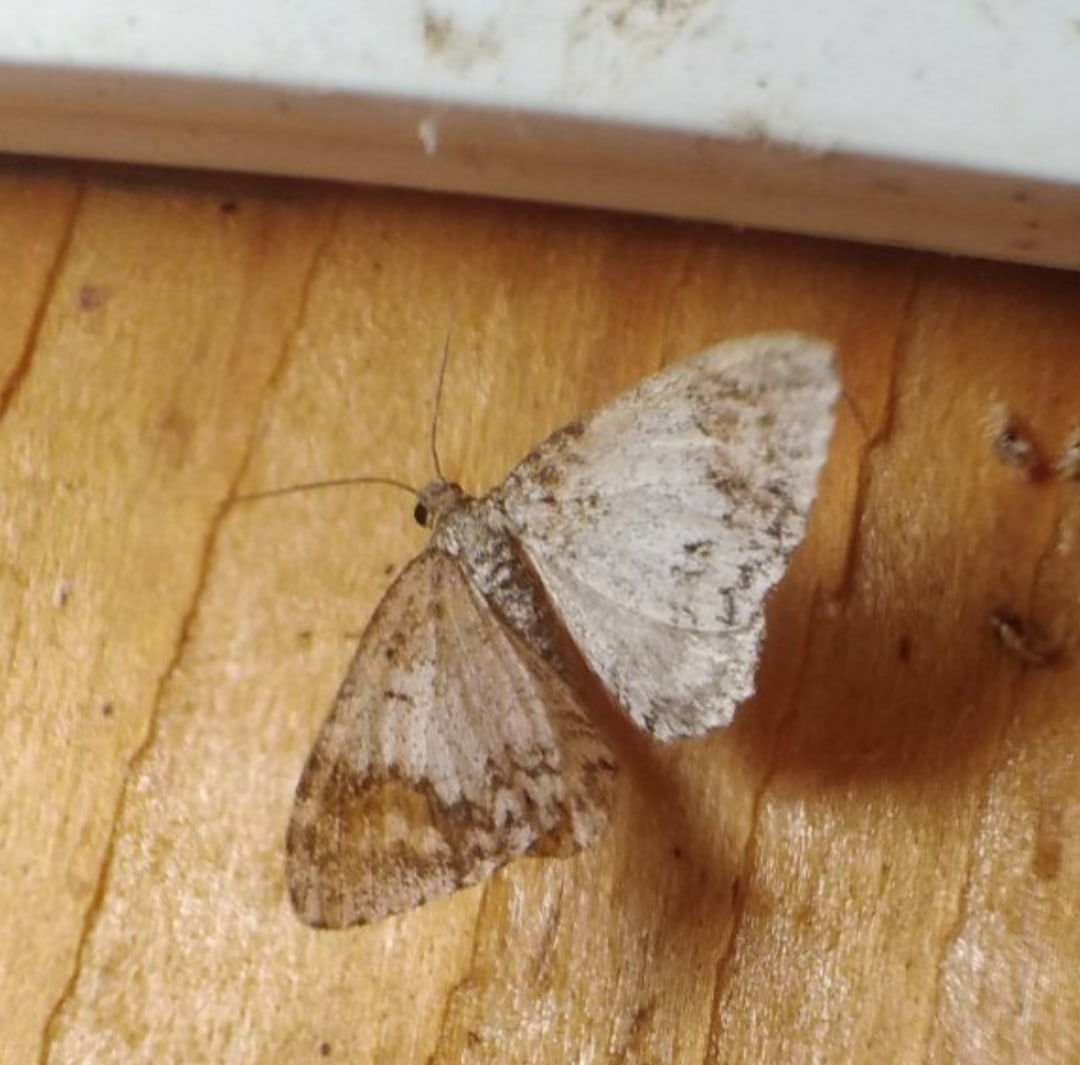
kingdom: Animalia
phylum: Arthropoda
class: Insecta
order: Lepidoptera
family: Geometridae
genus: Venusia
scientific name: Venusia blomeri
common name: Blomer's rivulet
